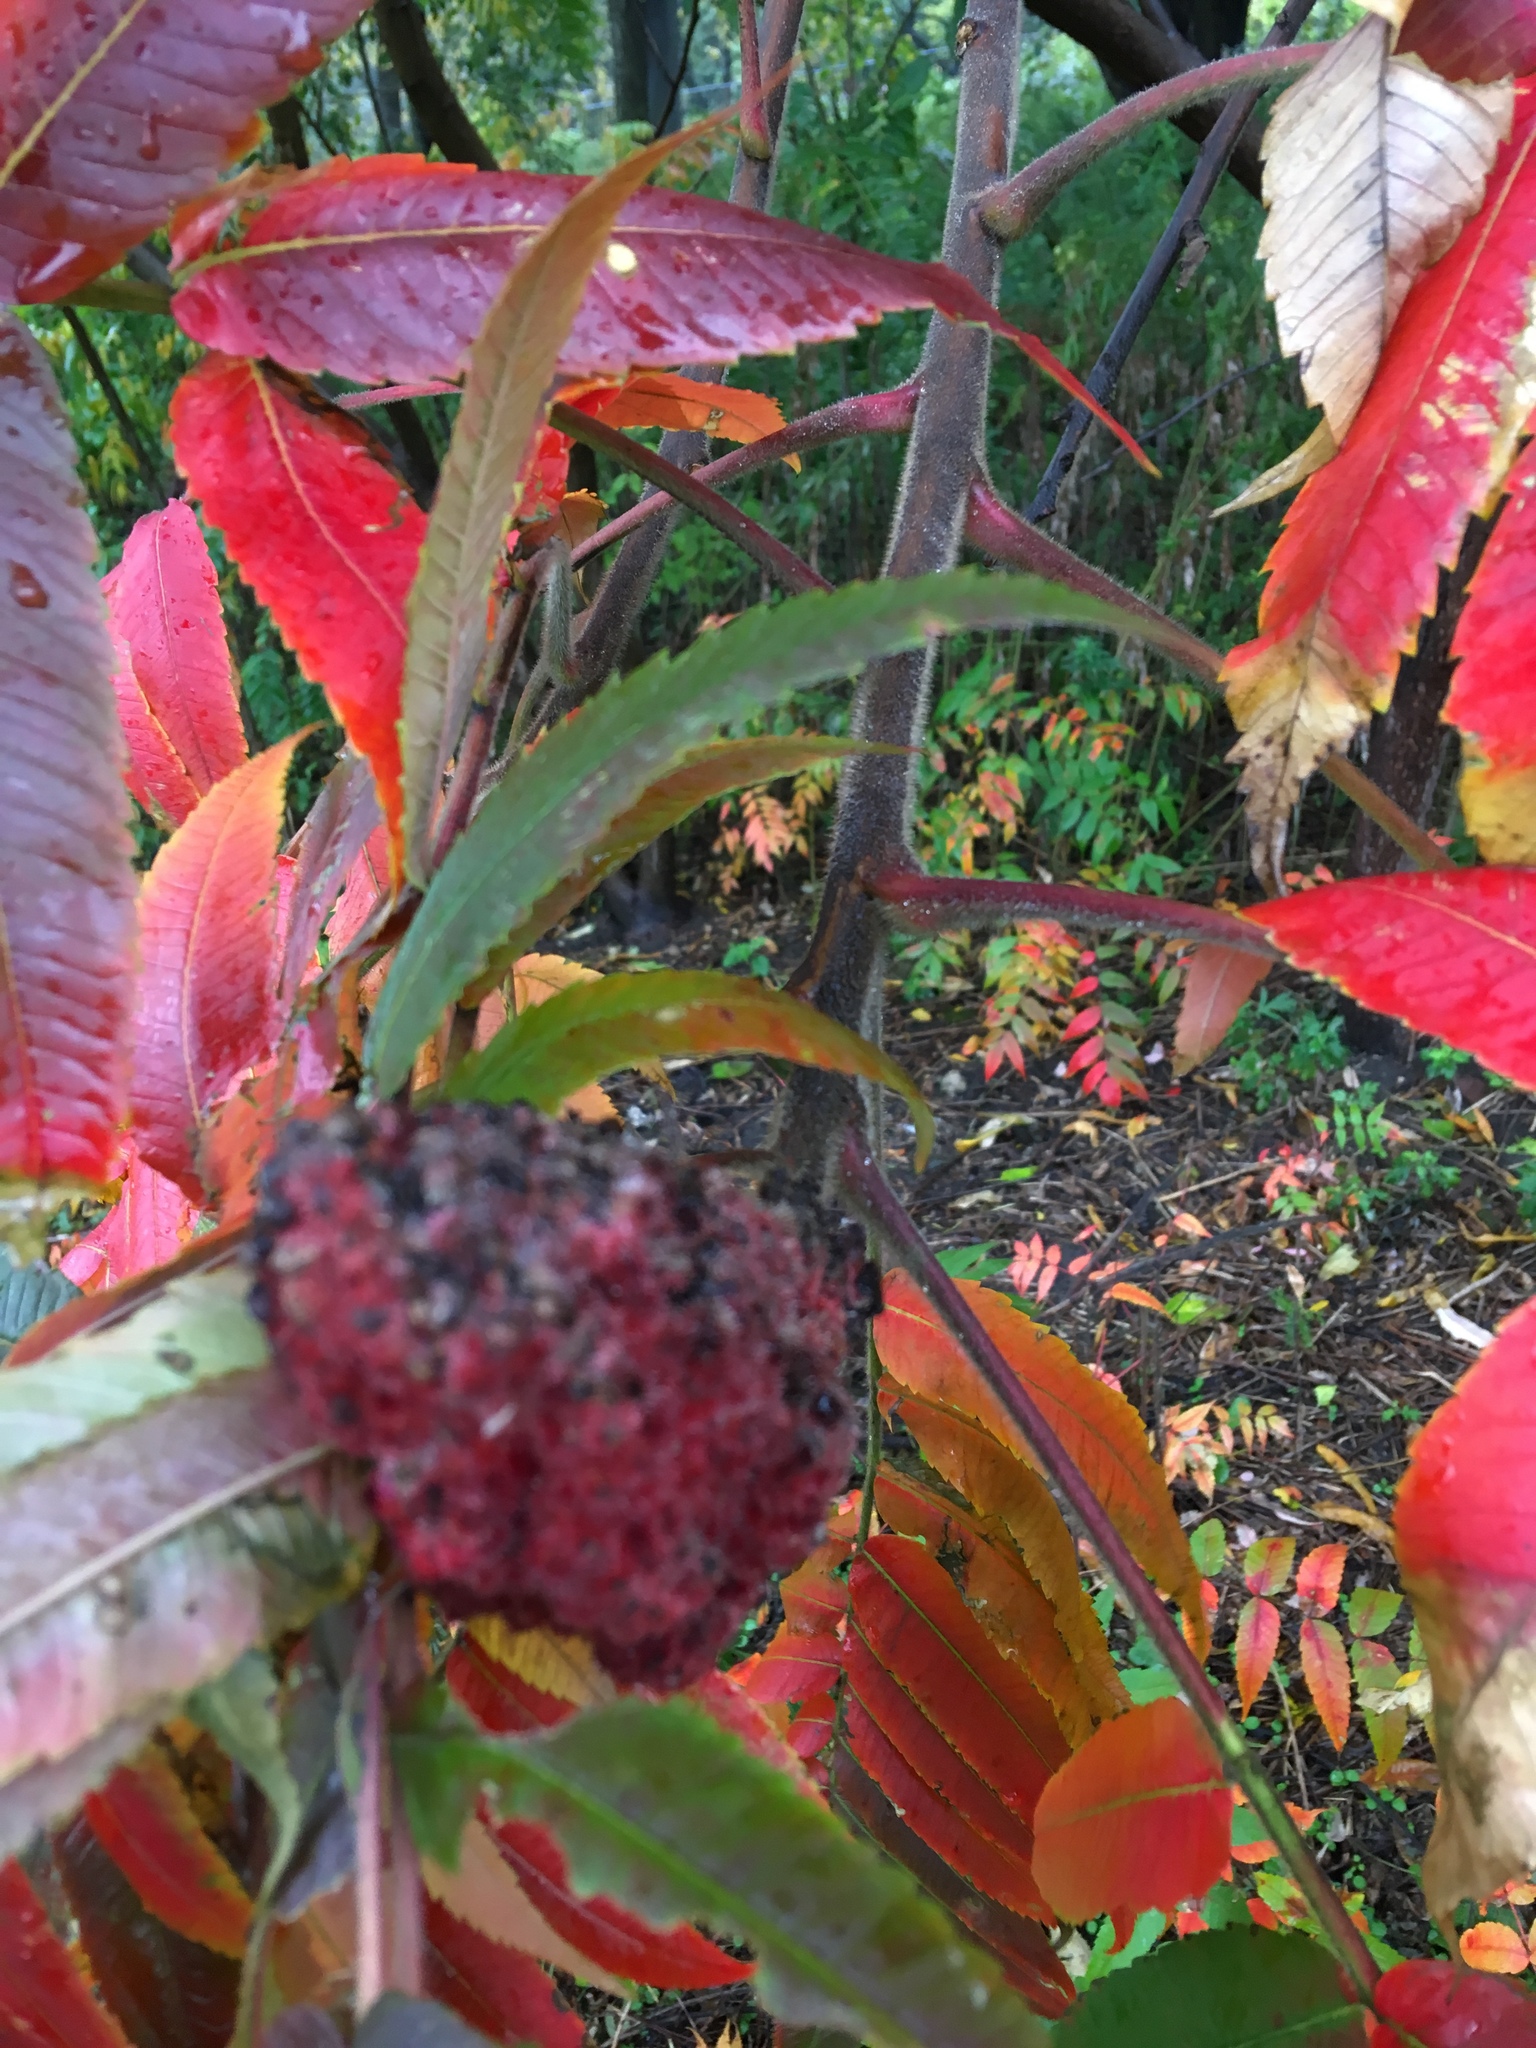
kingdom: Plantae
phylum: Tracheophyta
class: Magnoliopsida
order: Sapindales
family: Anacardiaceae
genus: Rhus
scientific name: Rhus typhina
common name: Staghorn sumac
